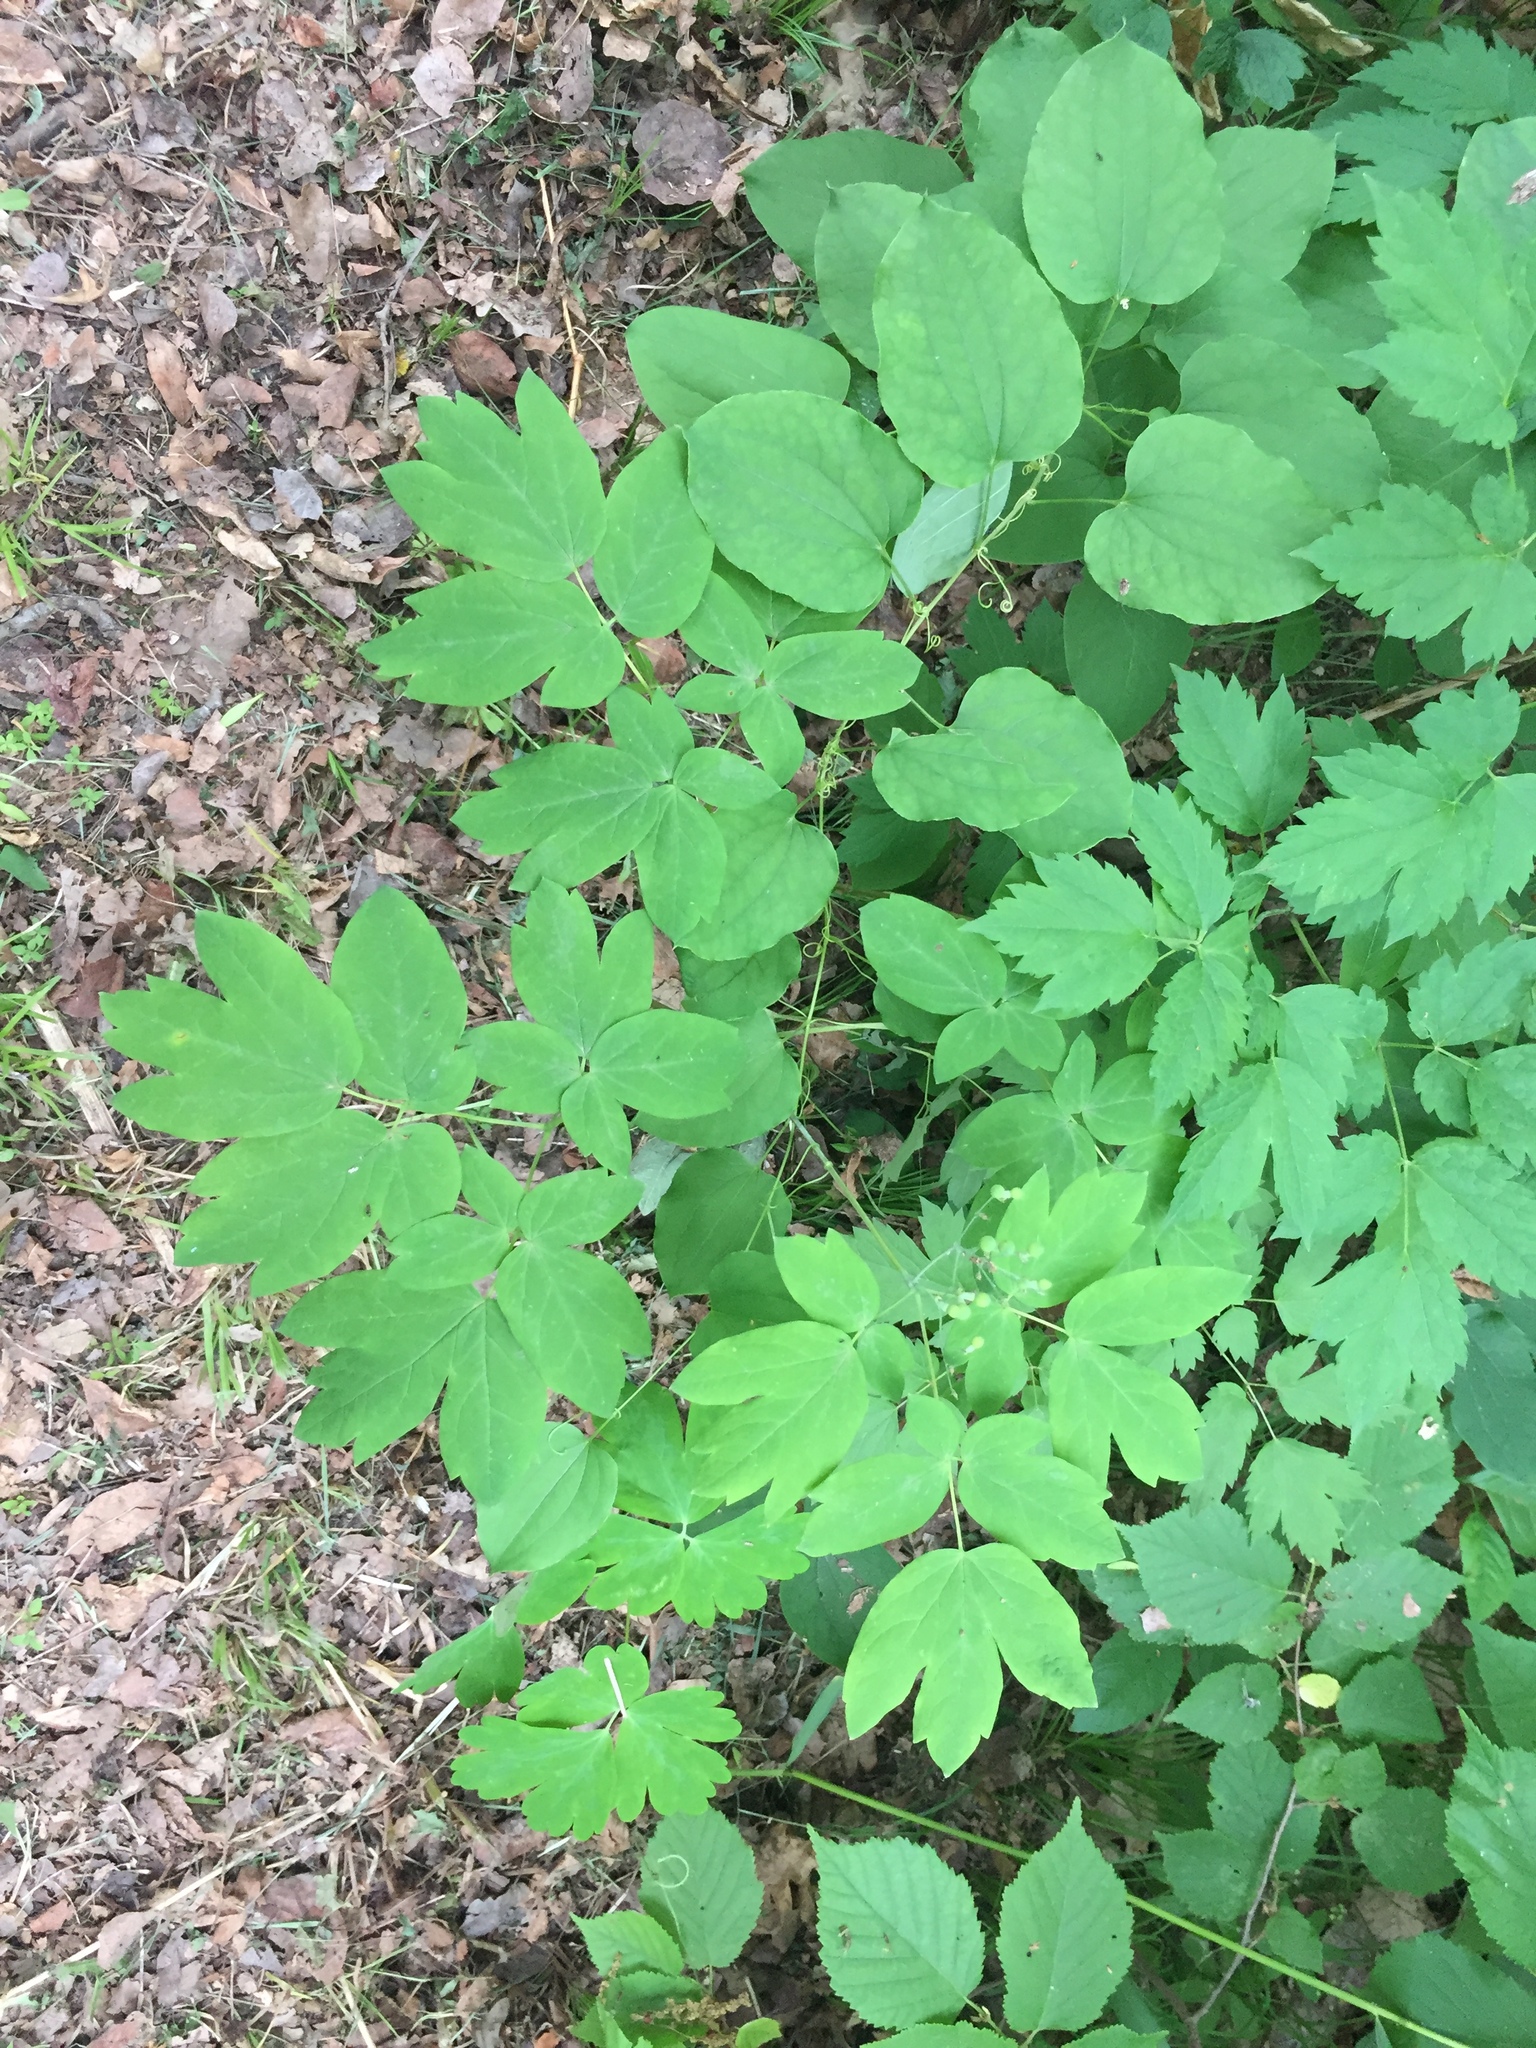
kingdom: Plantae
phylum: Tracheophyta
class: Magnoliopsida
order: Ranunculales
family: Berberidaceae
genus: Caulophyllum
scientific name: Caulophyllum thalictroides
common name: Blue cohosh
